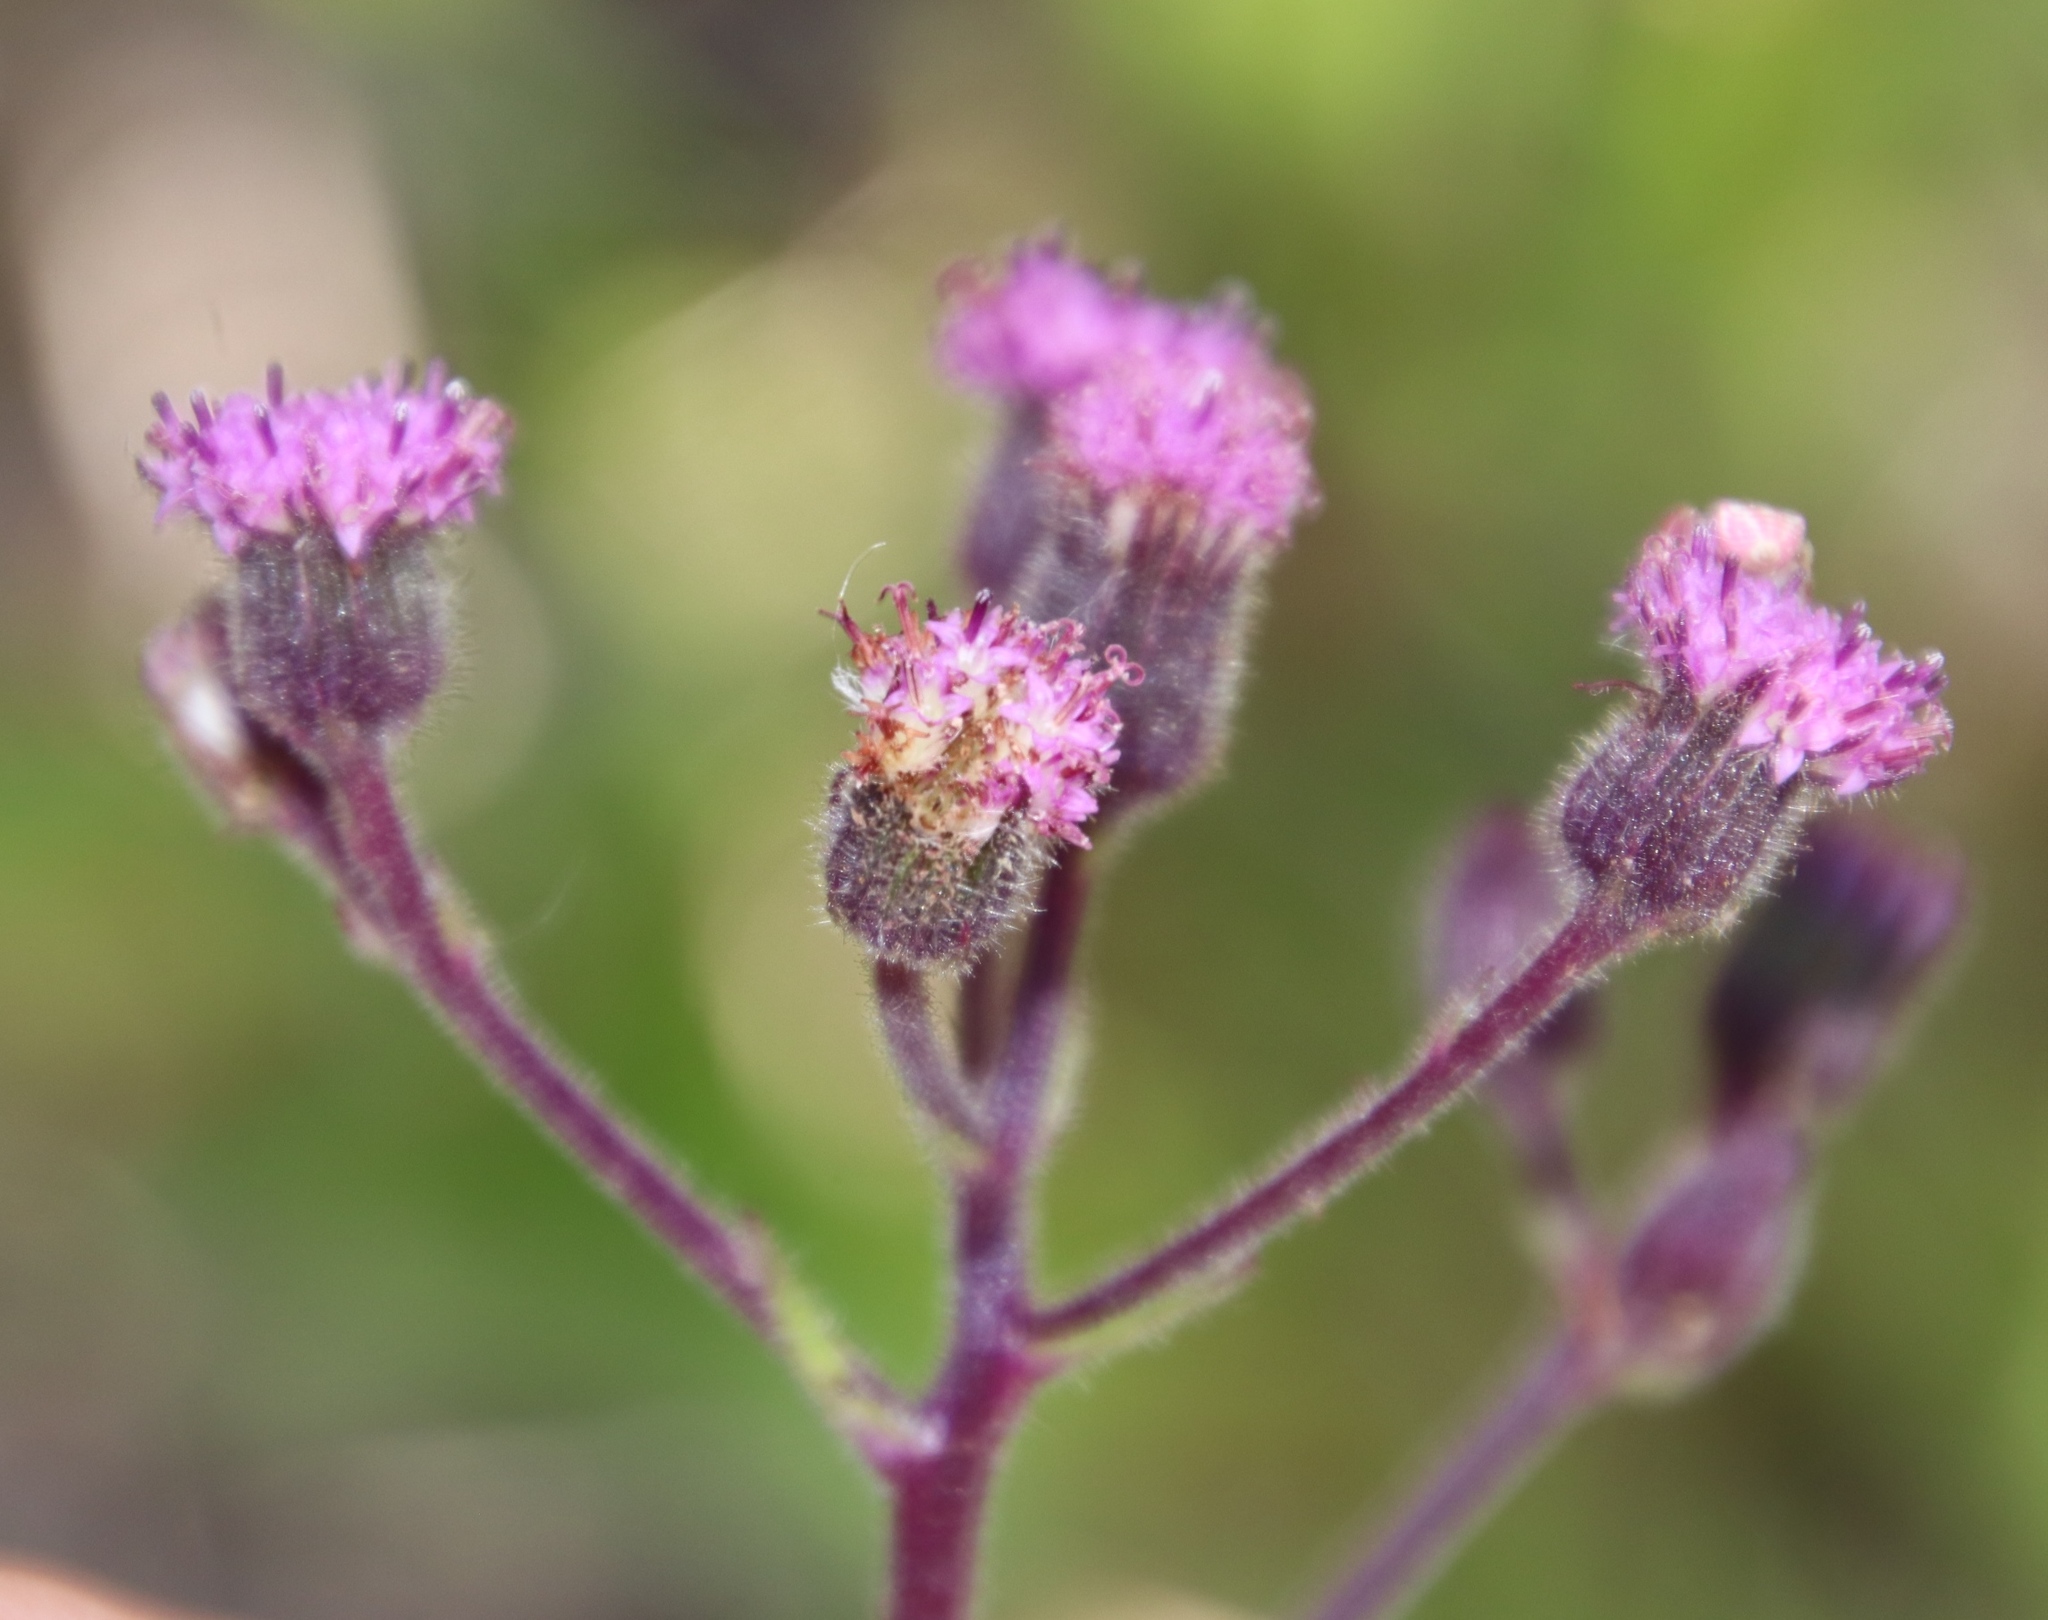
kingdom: Plantae
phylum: Tracheophyta
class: Magnoliopsida
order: Asterales
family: Asteraceae
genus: Senecio
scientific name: Senecio purpureus
